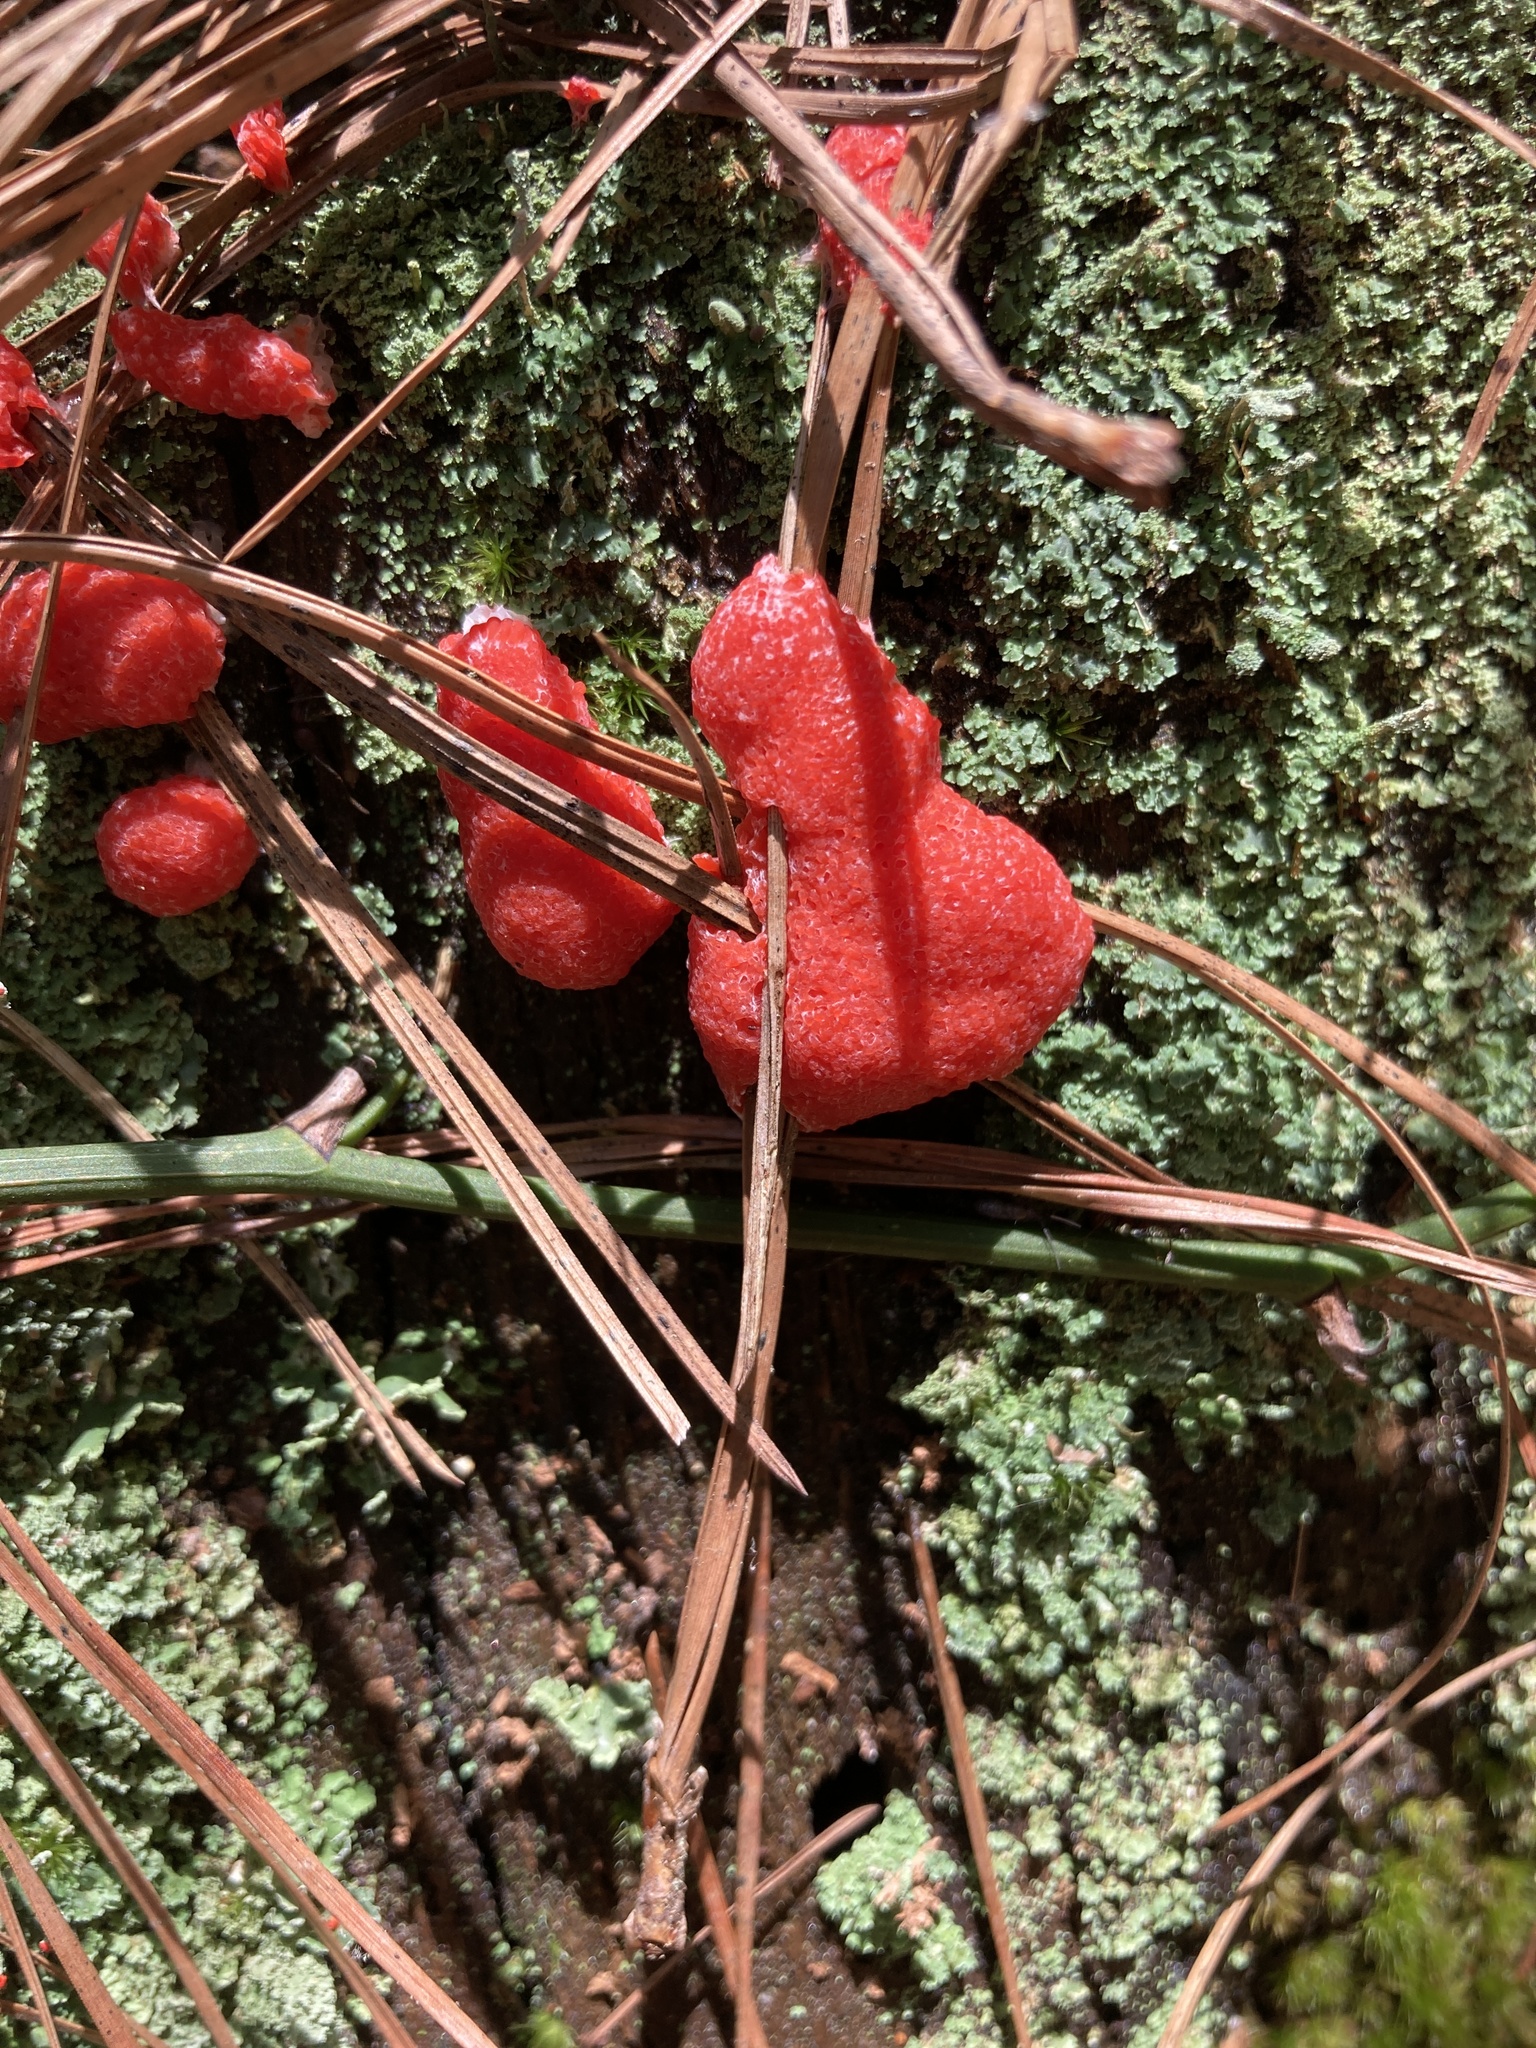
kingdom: Protozoa
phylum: Mycetozoa
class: Myxomycetes
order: Cribrariales
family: Tubiferaceae
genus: Tubifera
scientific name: Tubifera ferruginosa
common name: Red raspberry slime mold
